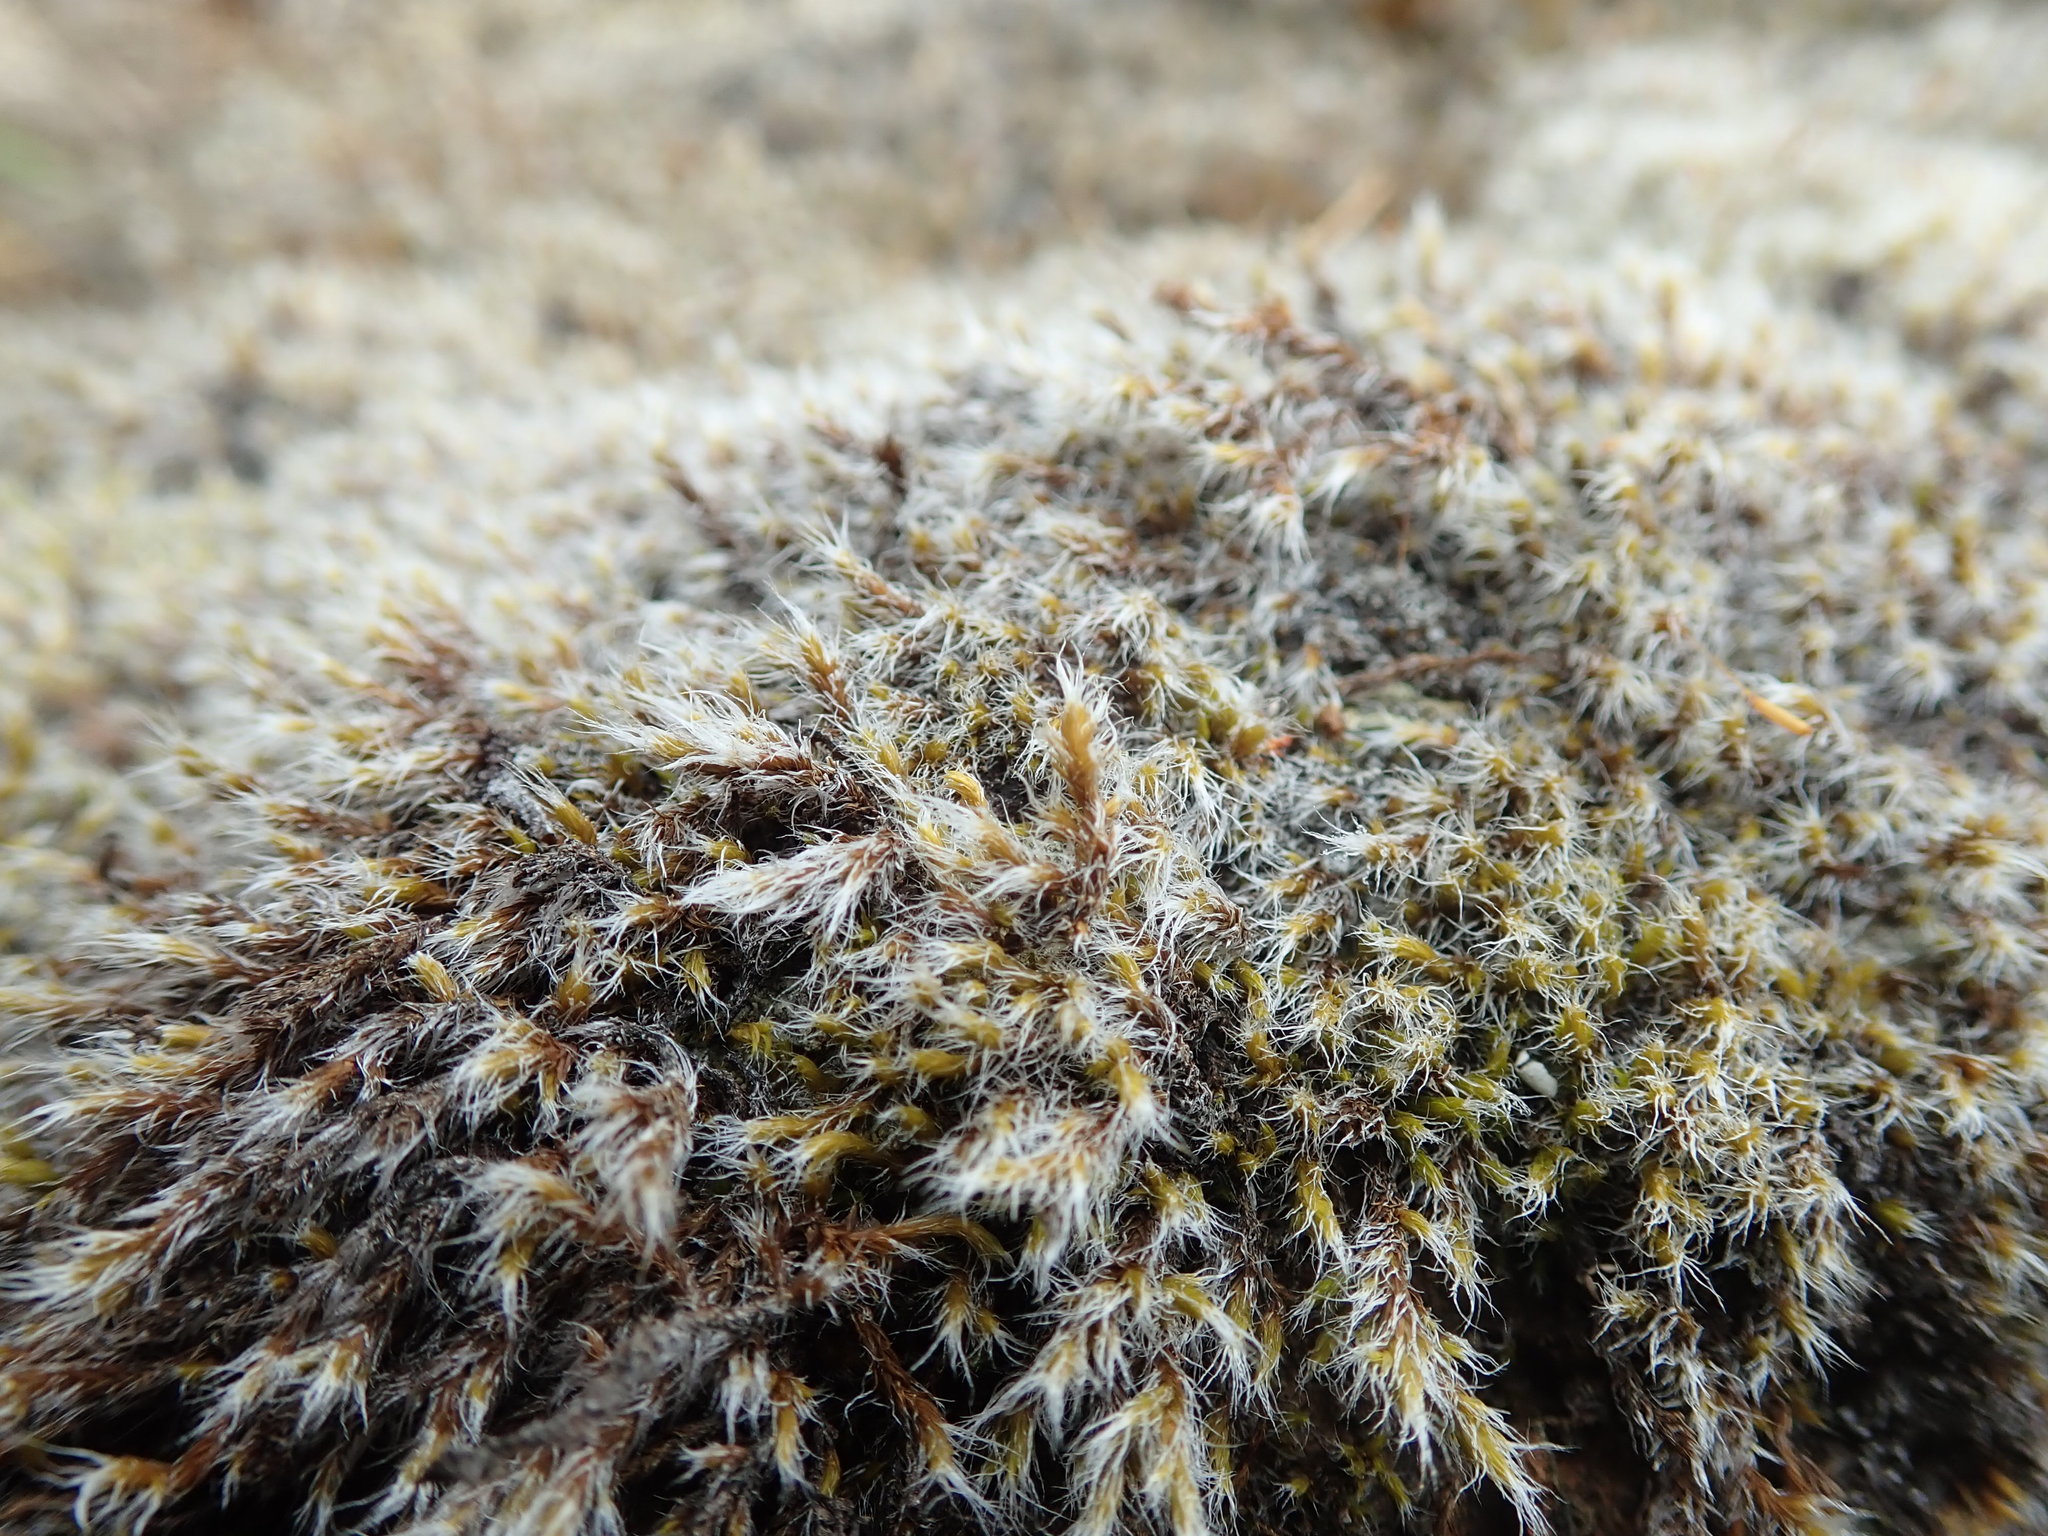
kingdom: Plantae
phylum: Bryophyta
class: Bryopsida
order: Grimmiales
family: Grimmiaceae
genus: Racomitrium
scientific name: Racomitrium lanuginosum
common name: Hoary rock moss
